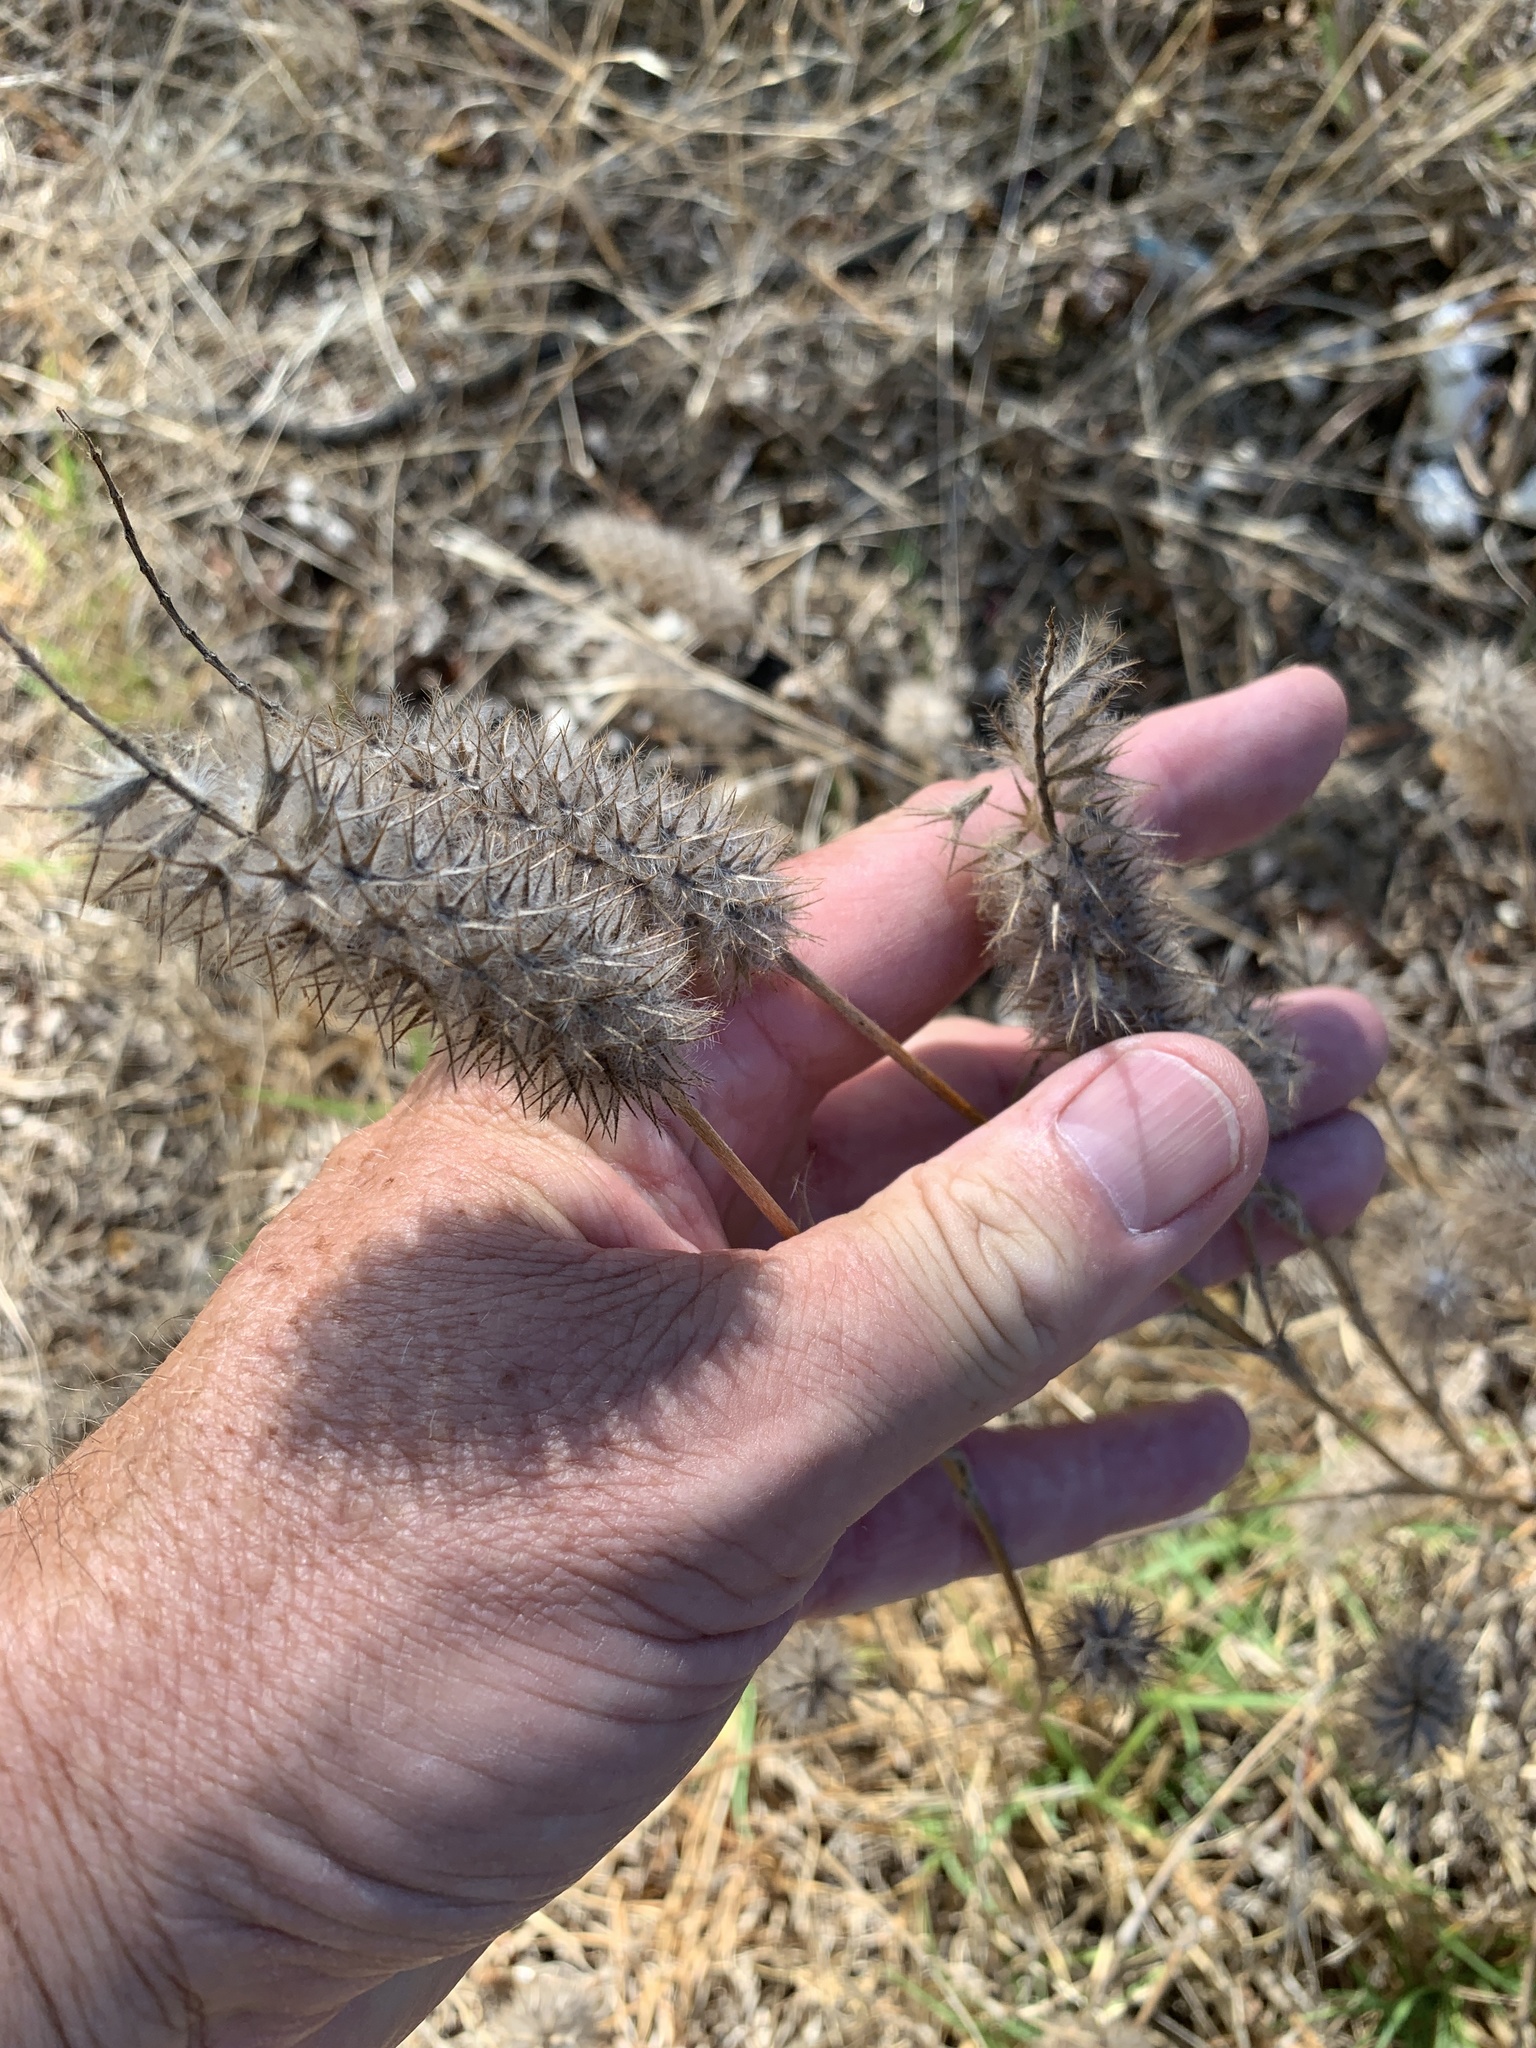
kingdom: Plantae
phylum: Tracheophyta
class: Magnoliopsida
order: Fabales
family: Fabaceae
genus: Trifolium
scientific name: Trifolium angustifolium
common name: Narrow clover
